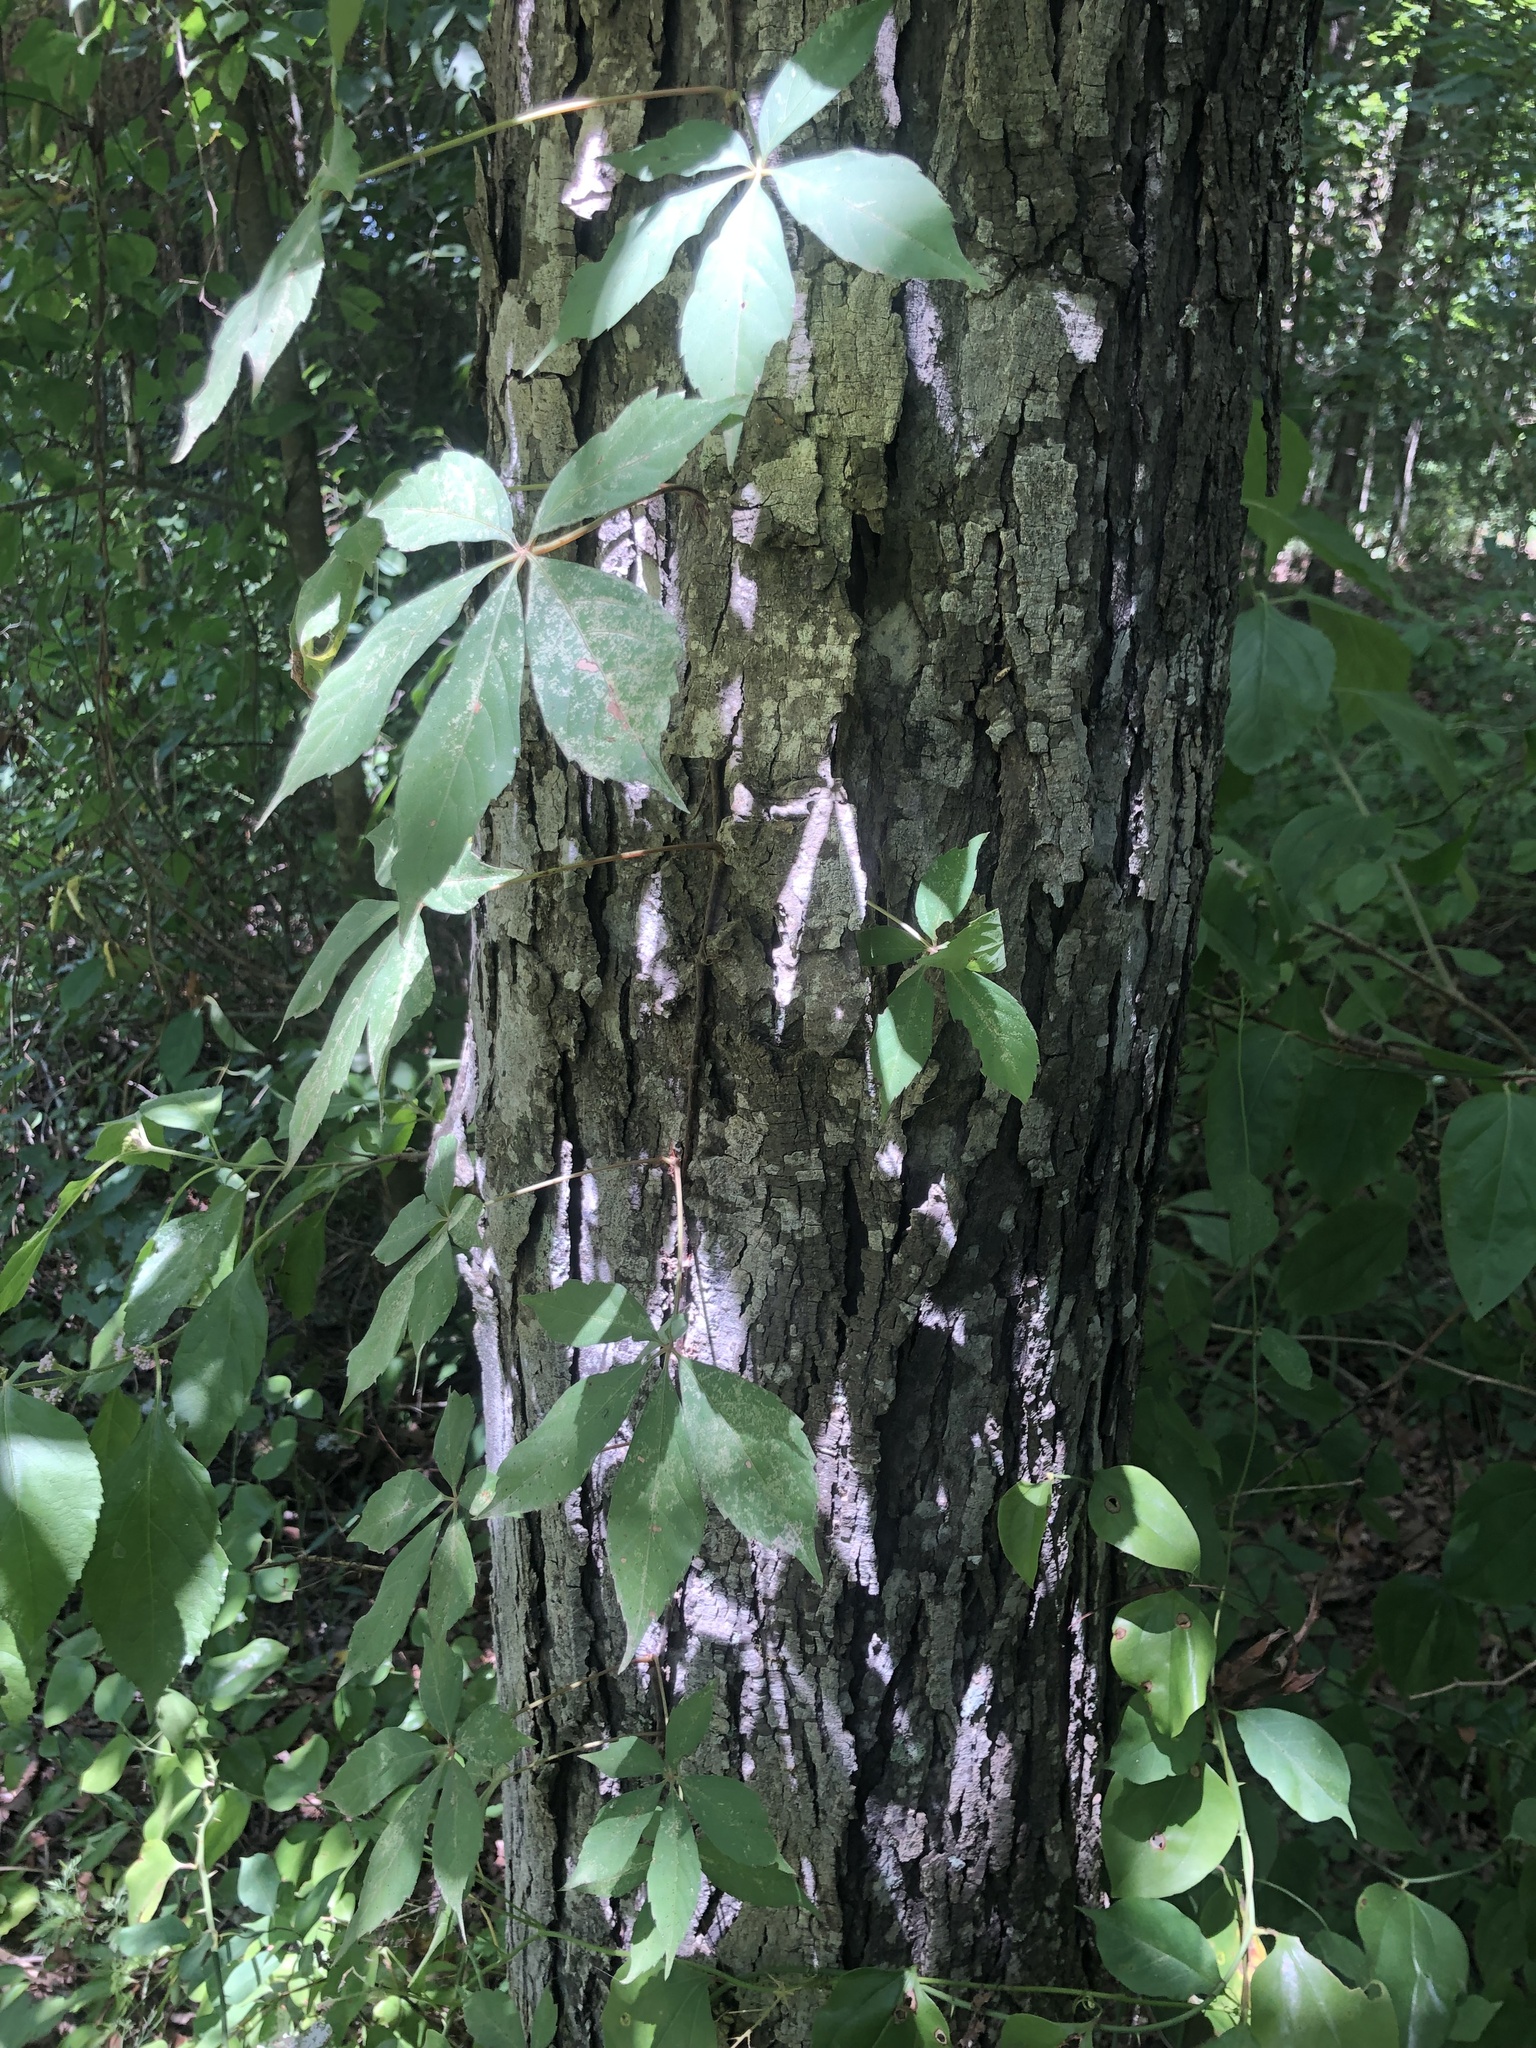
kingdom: Plantae
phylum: Tracheophyta
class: Magnoliopsida
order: Fagales
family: Juglandaceae
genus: Carya
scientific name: Carya carolinae-septentrionalis
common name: Carolina hickory
